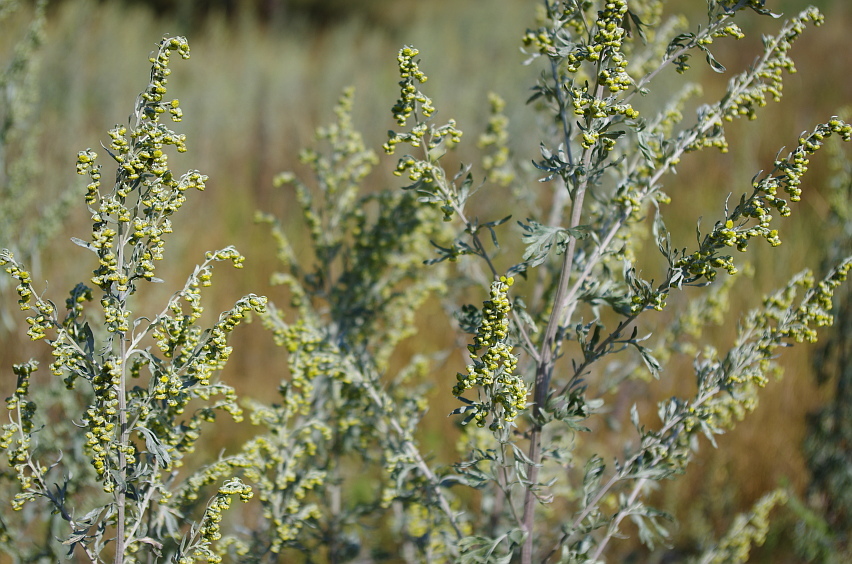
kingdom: Plantae
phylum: Tracheophyta
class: Magnoliopsida
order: Asterales
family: Asteraceae
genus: Artemisia
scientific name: Artemisia absinthium
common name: Wormwood
